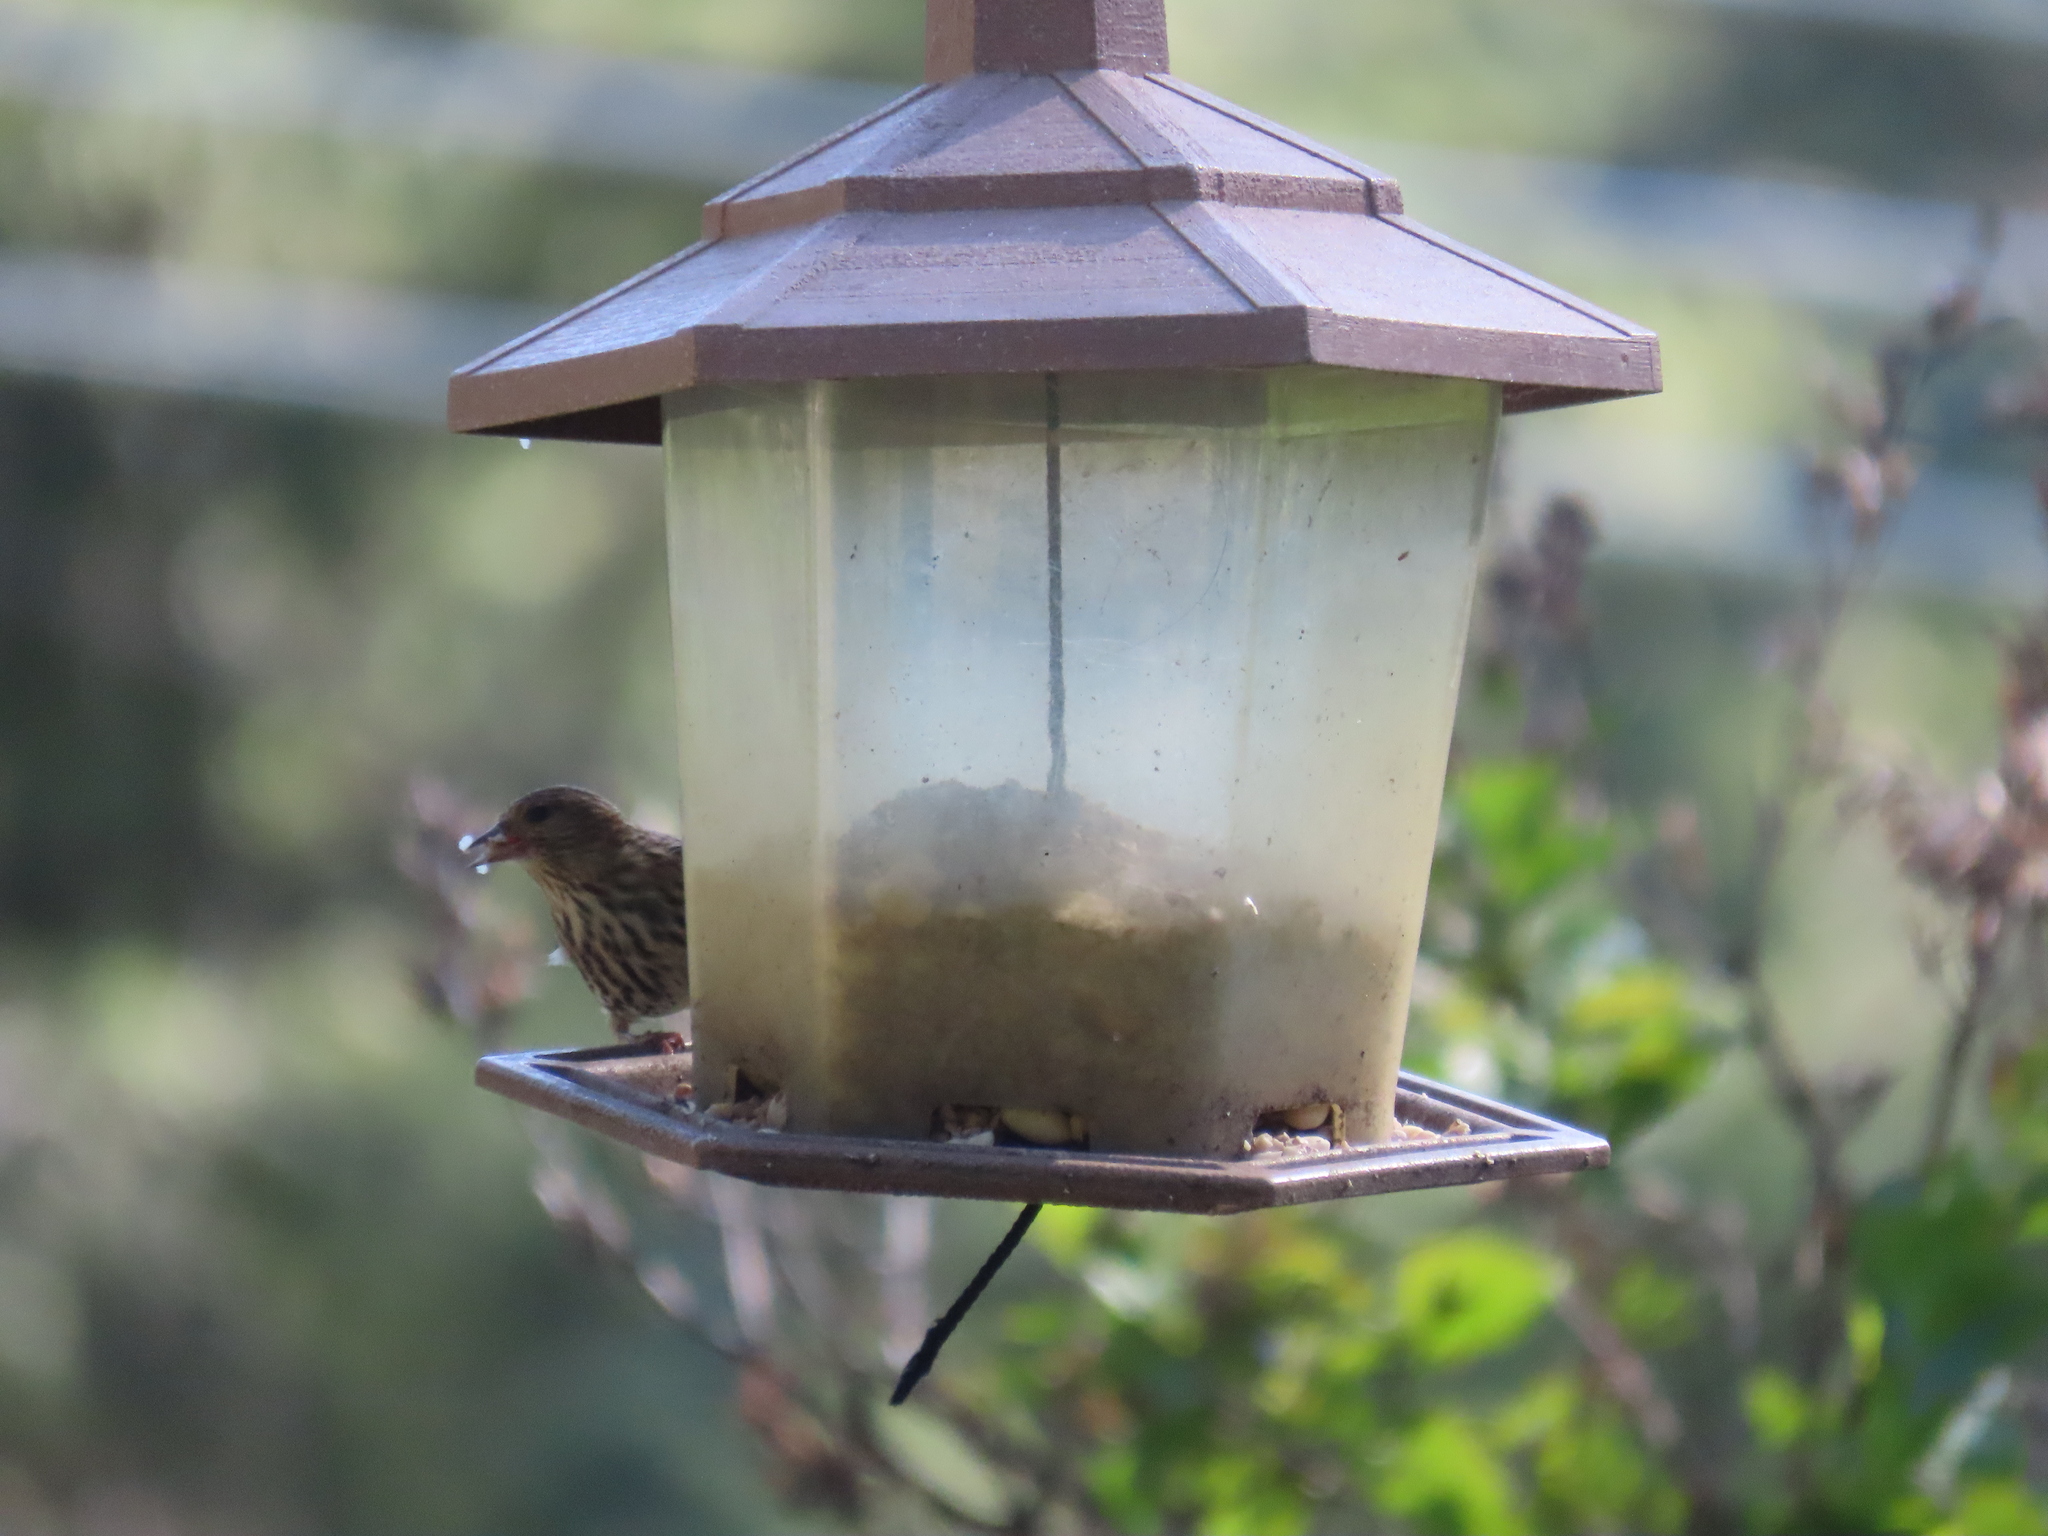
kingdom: Animalia
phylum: Chordata
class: Aves
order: Passeriformes
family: Fringillidae
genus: Spinus
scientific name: Spinus pinus
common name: Pine siskin
